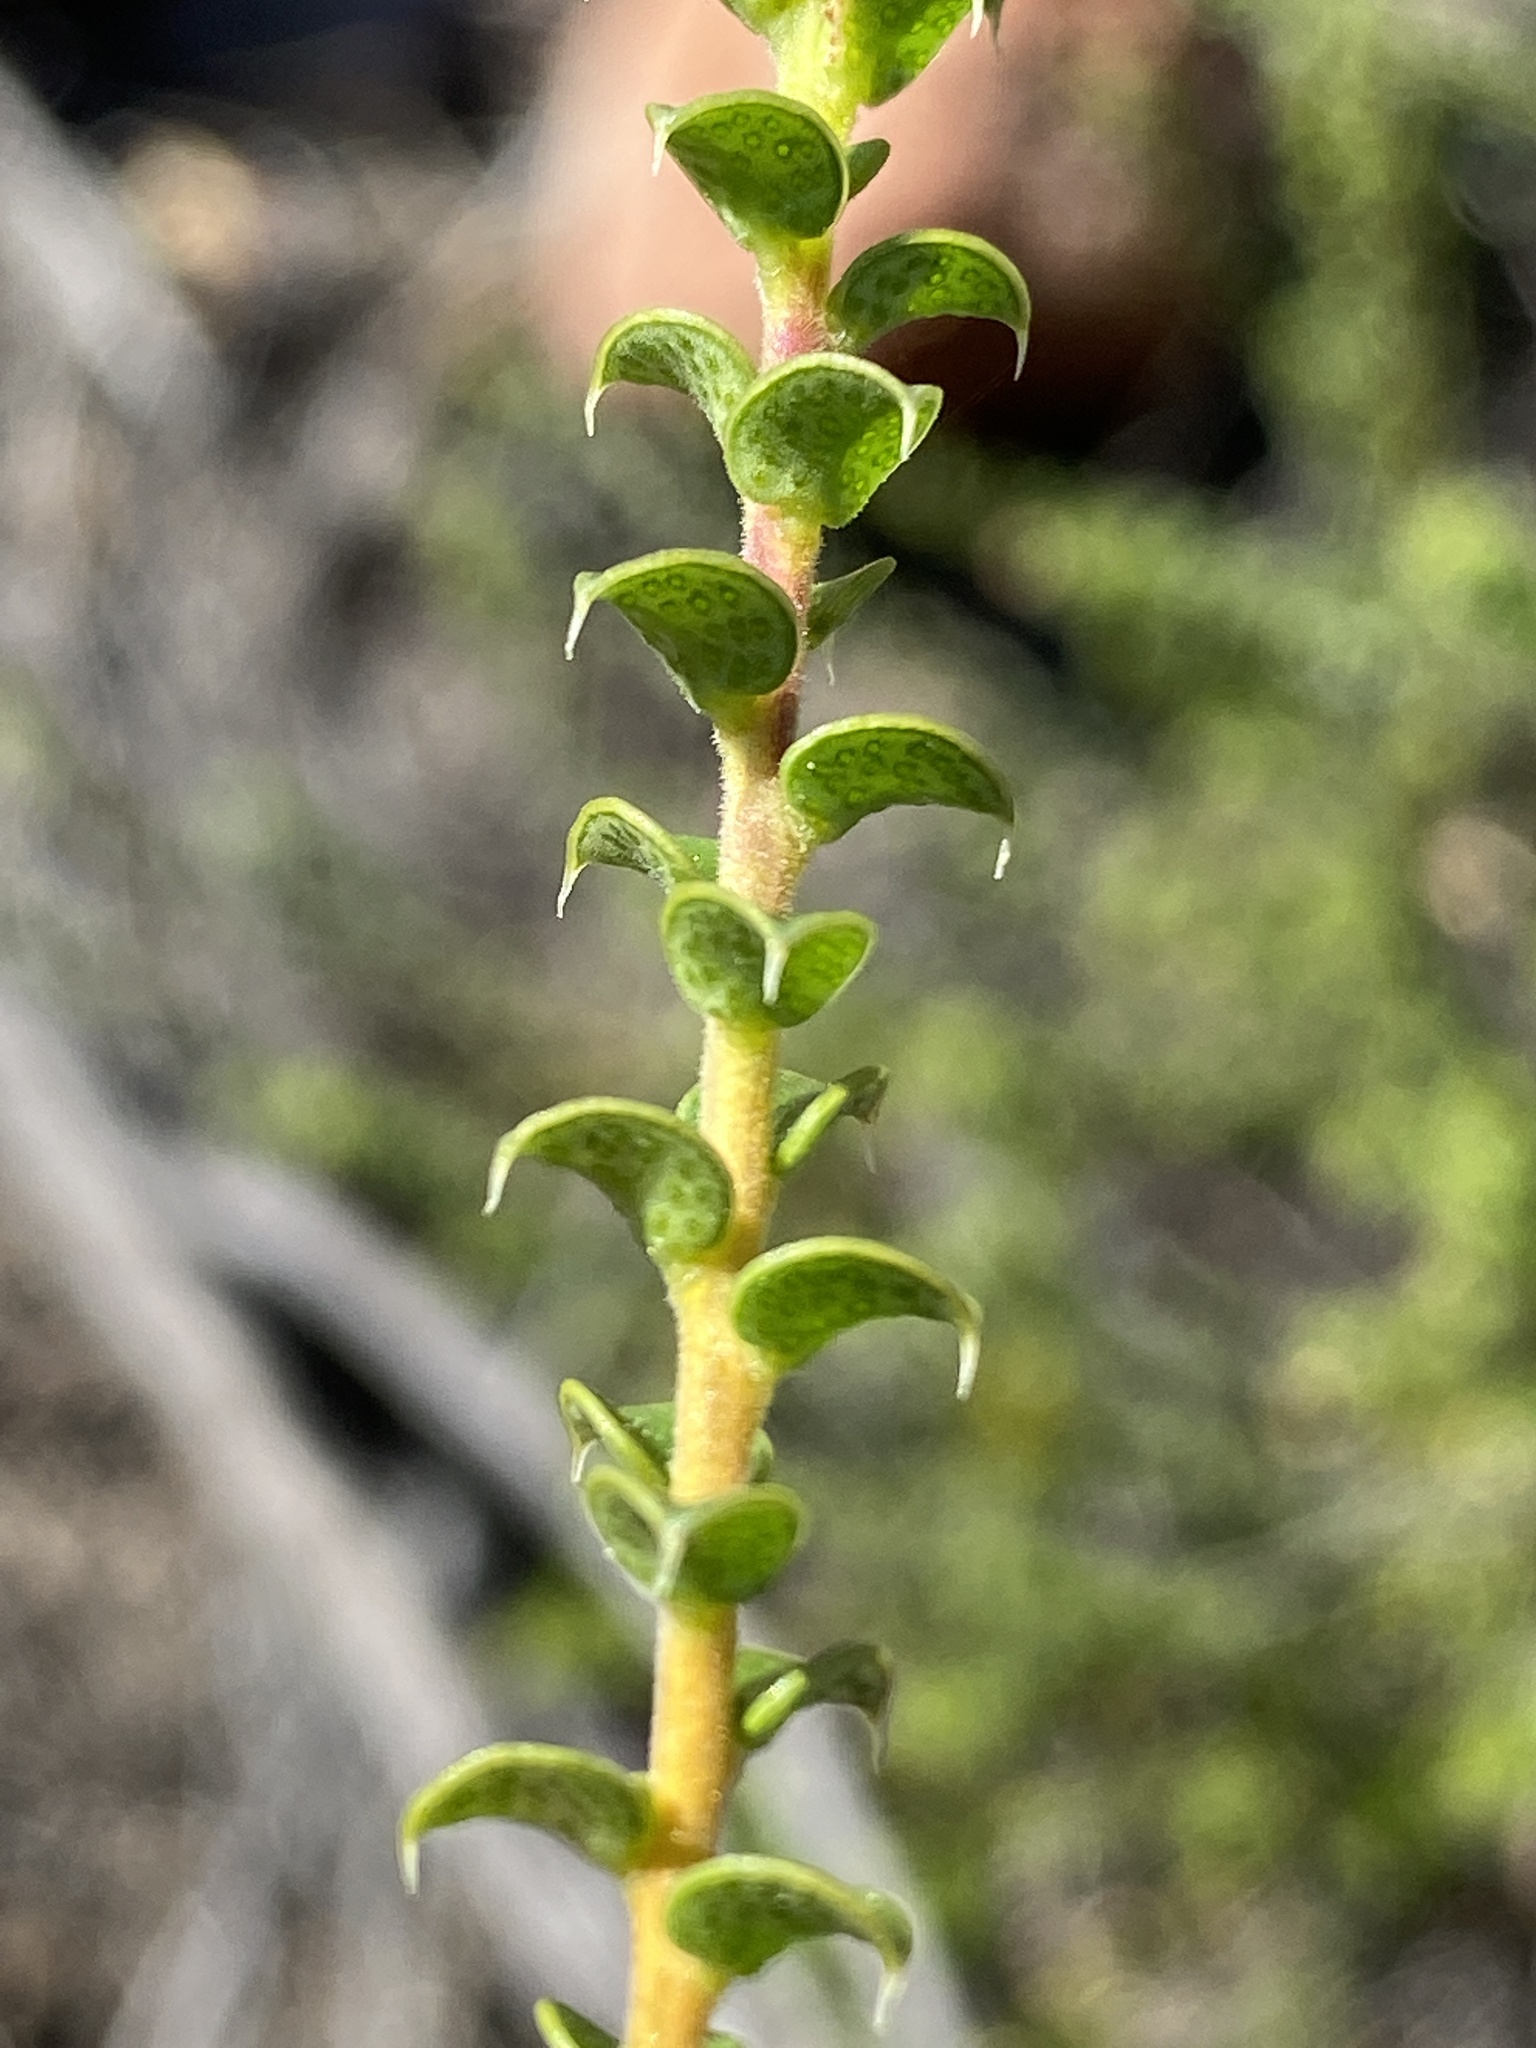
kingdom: Plantae
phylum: Tracheophyta
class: Magnoliopsida
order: Sapindales
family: Rutaceae
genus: Agathosma
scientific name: Agathosma recurvifolia
